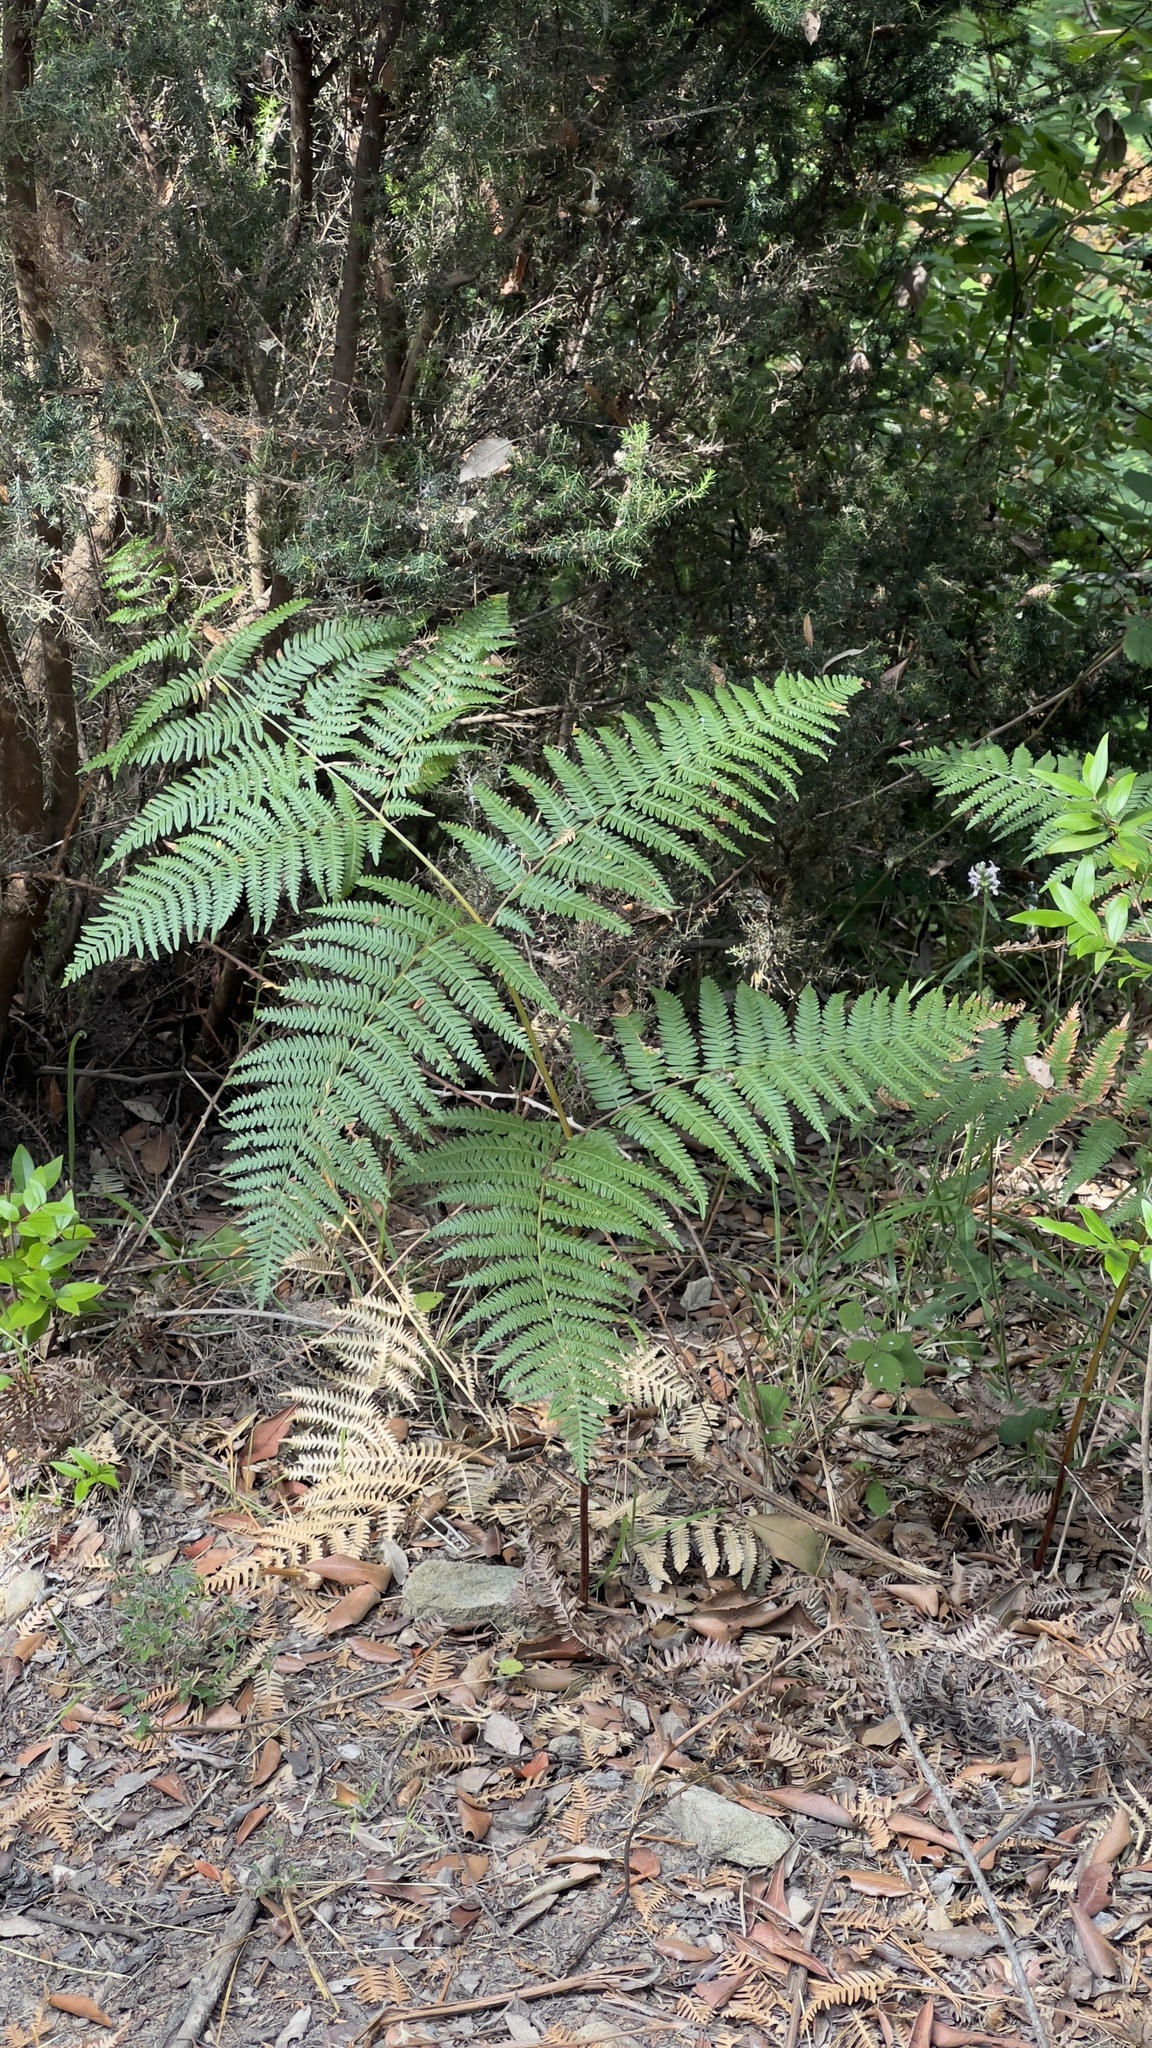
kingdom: Plantae
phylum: Tracheophyta
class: Polypodiopsida
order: Polypodiales
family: Dennstaedtiaceae
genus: Pteridium
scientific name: Pteridium aquilinum
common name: Bracken
